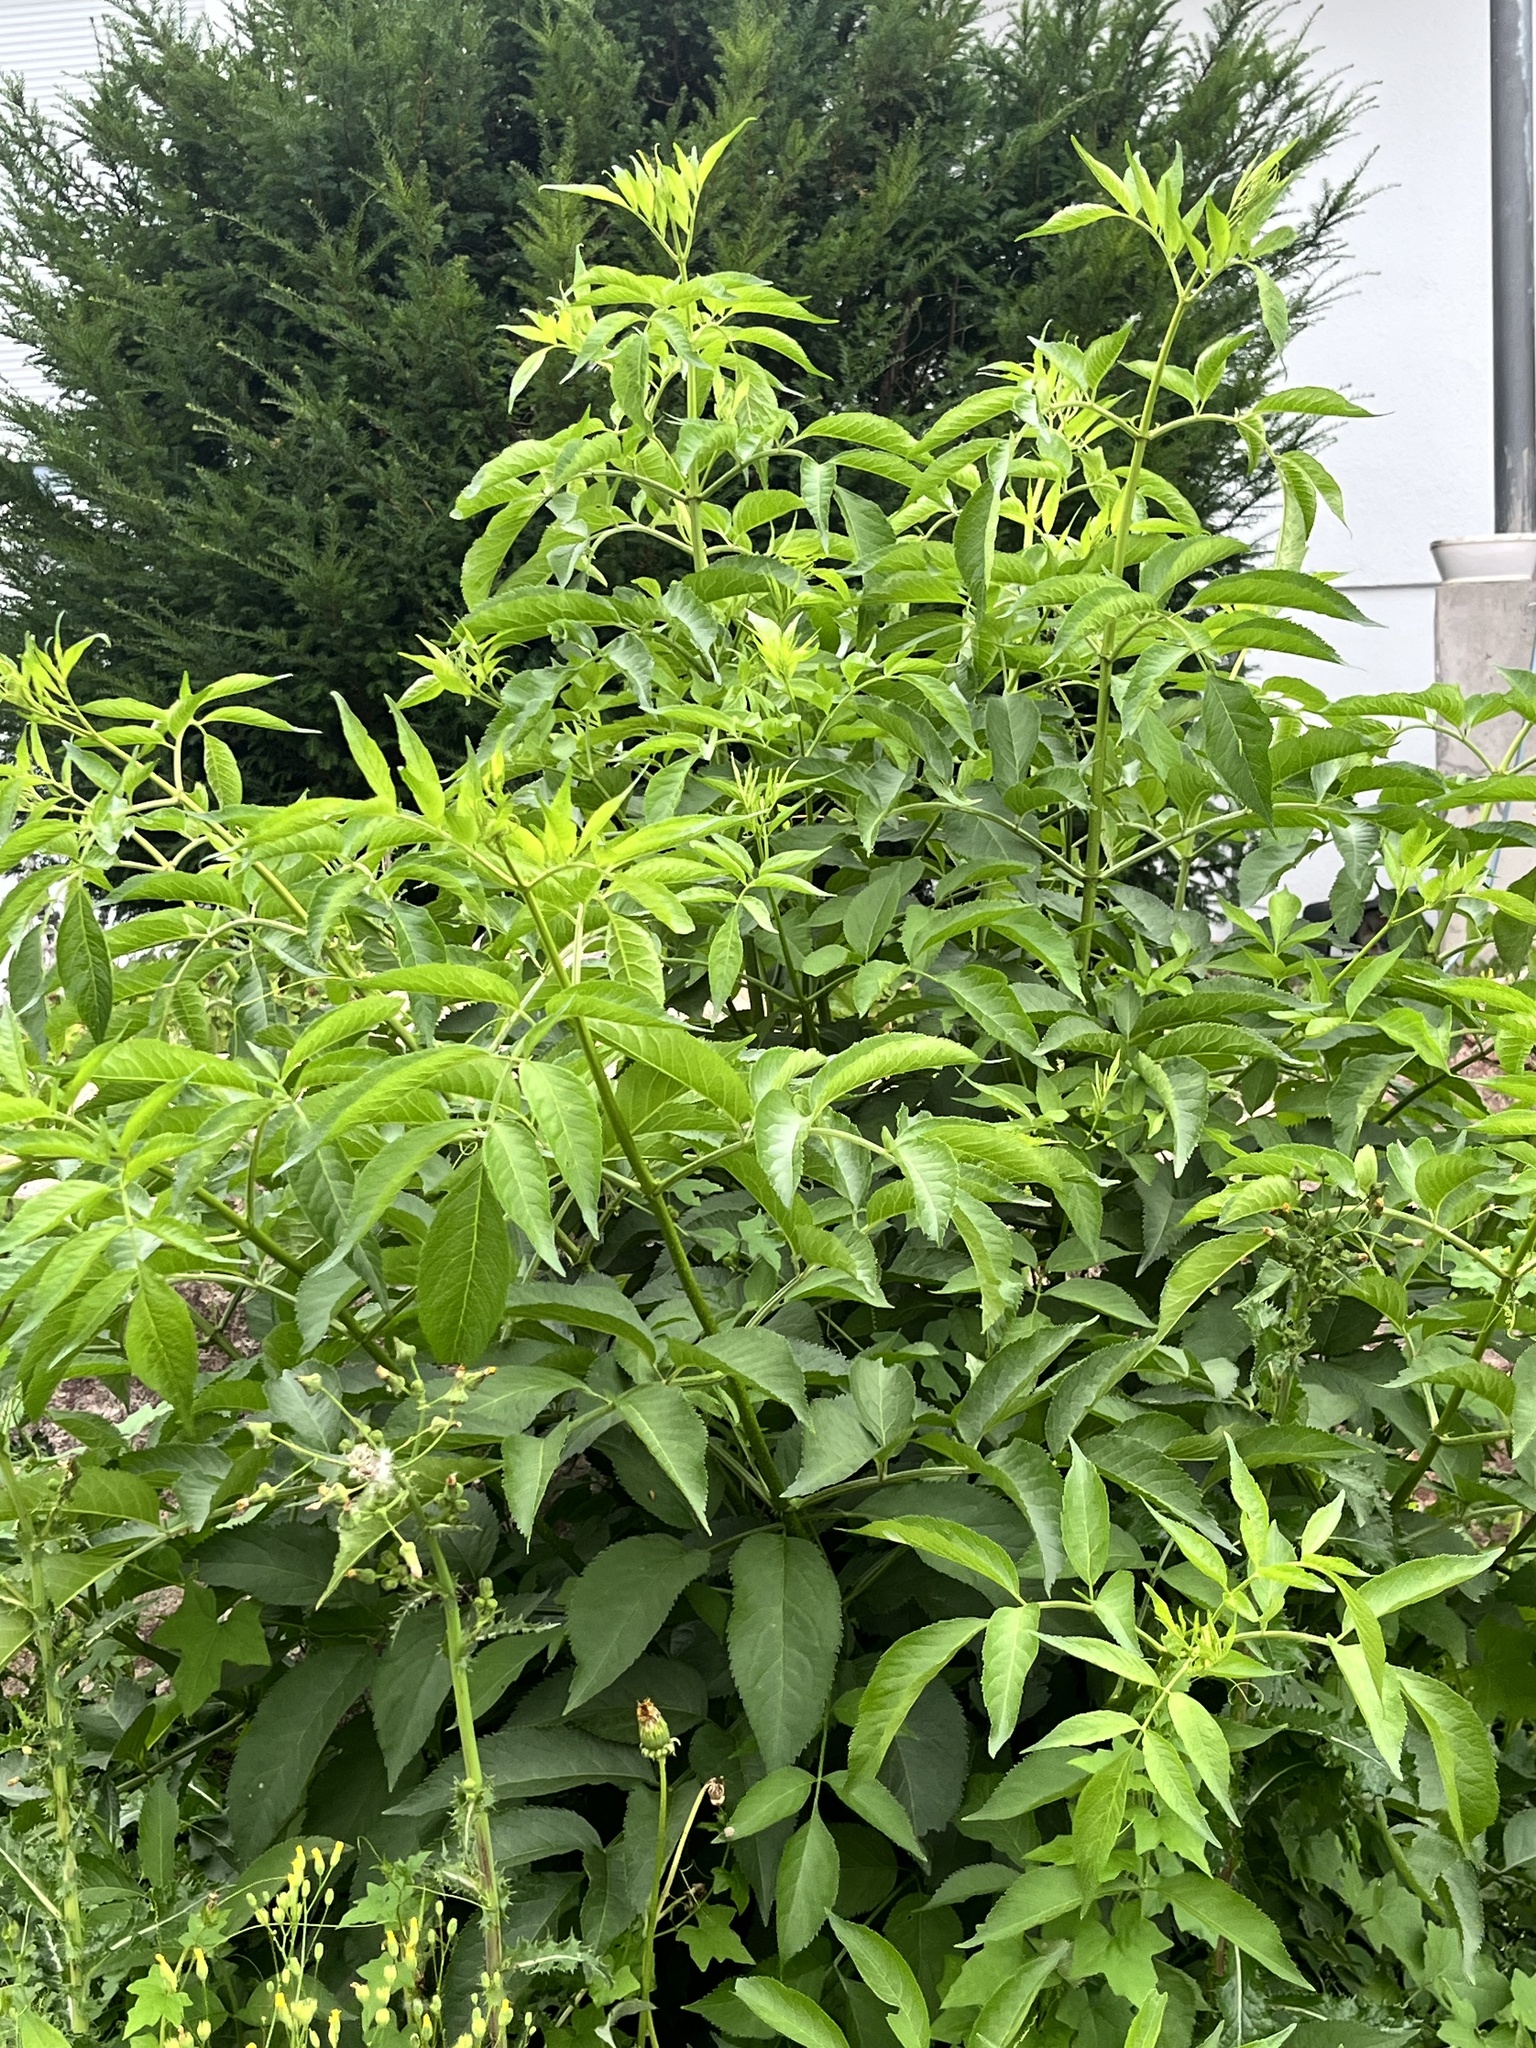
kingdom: Plantae
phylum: Tracheophyta
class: Magnoliopsida
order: Dipsacales
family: Viburnaceae
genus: Sambucus
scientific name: Sambucus nigra
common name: Elder
